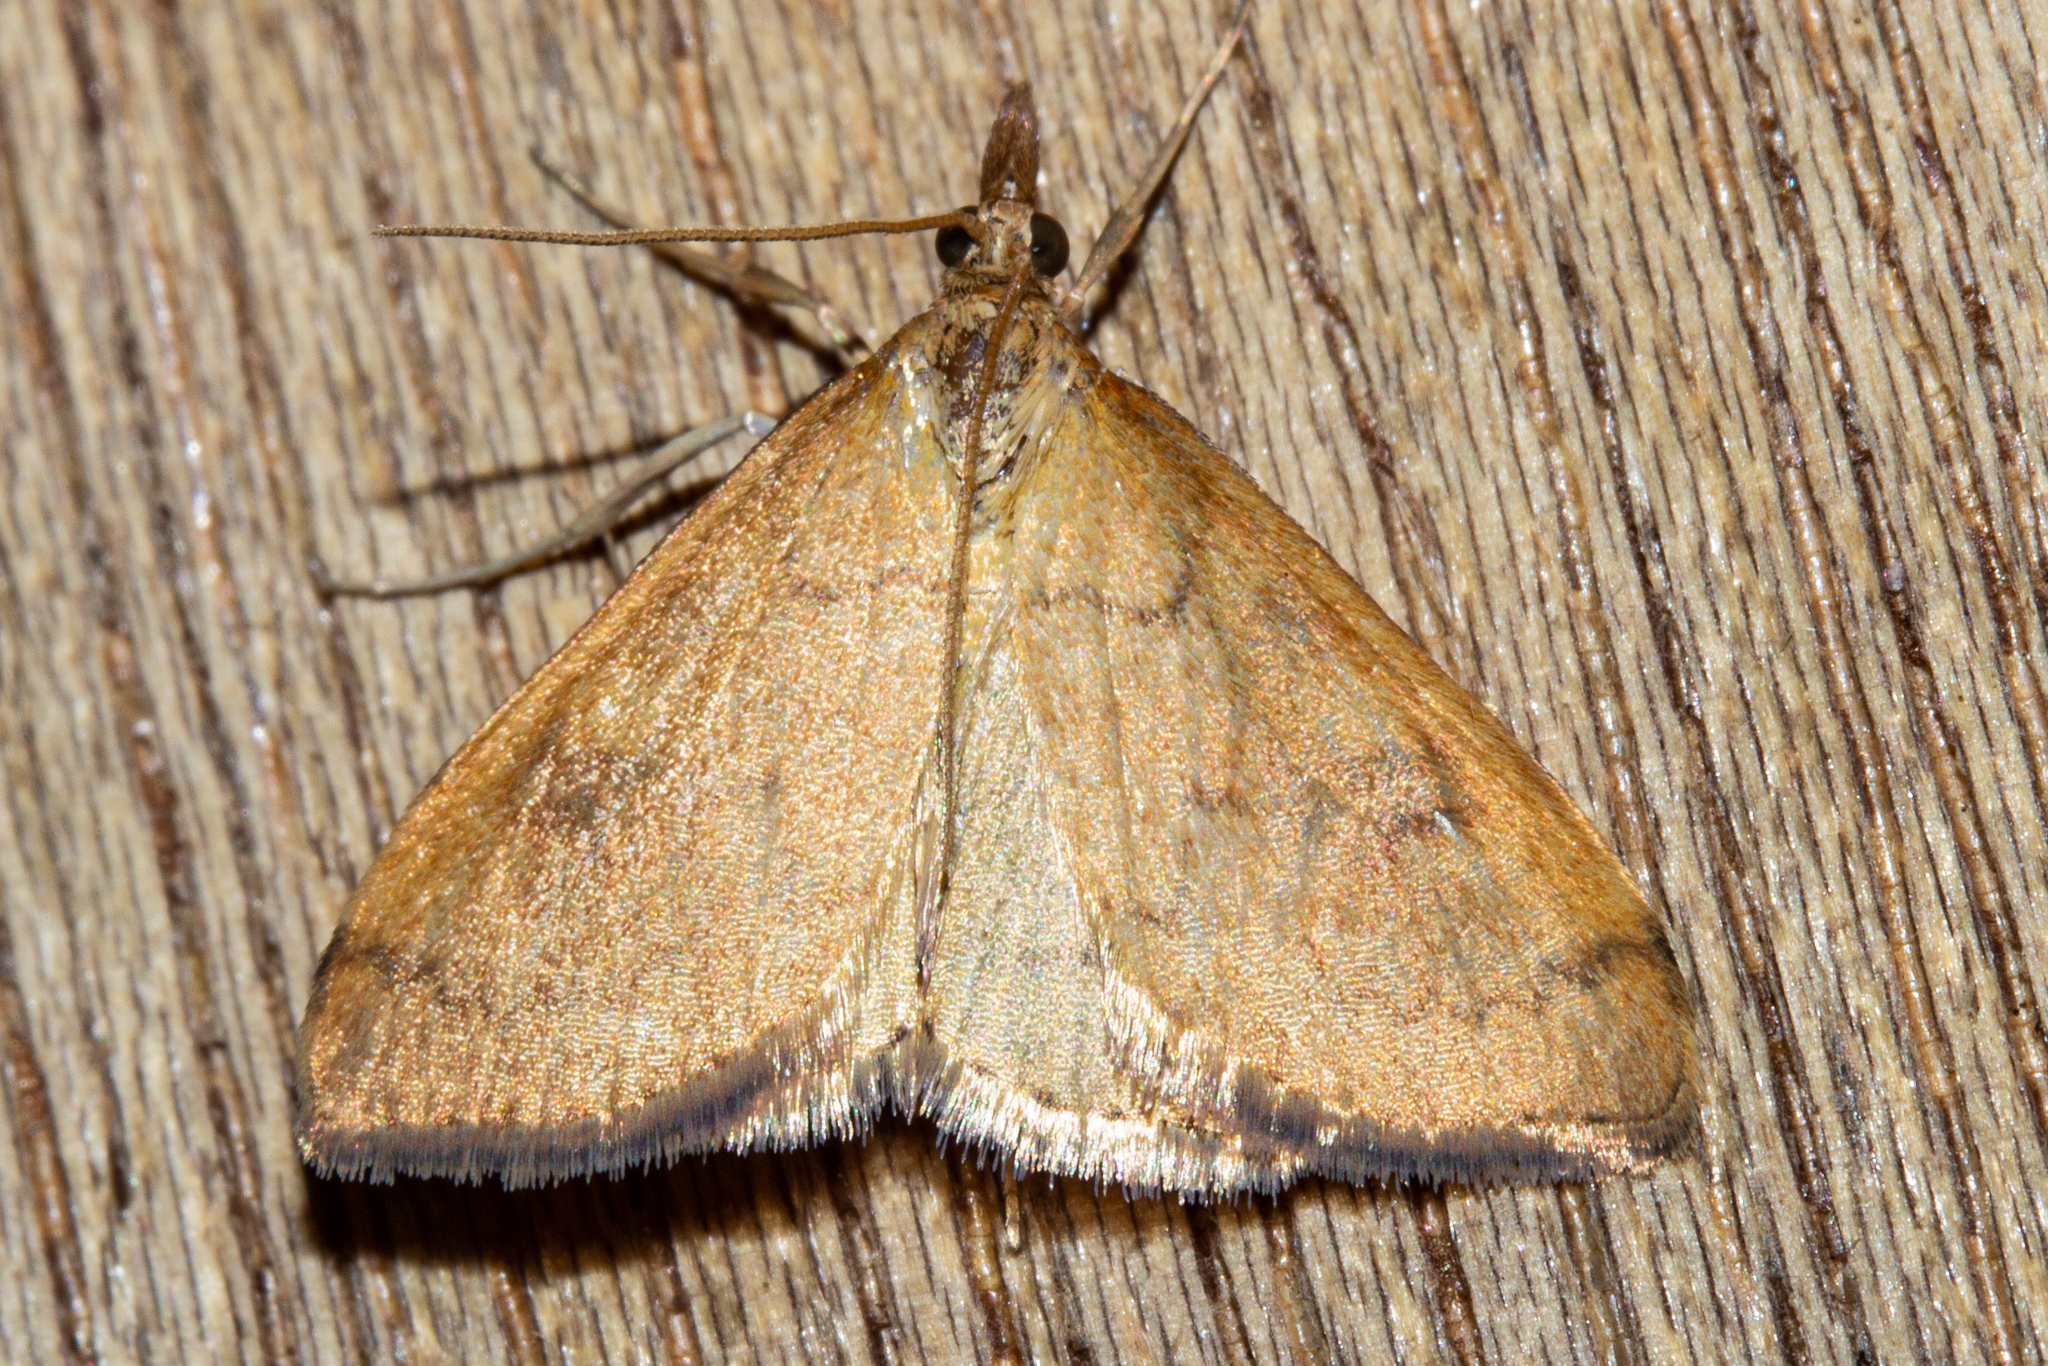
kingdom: Animalia
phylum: Arthropoda
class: Insecta
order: Lepidoptera
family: Crambidae
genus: Udea
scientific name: Udea Mnesictena flavidalis
